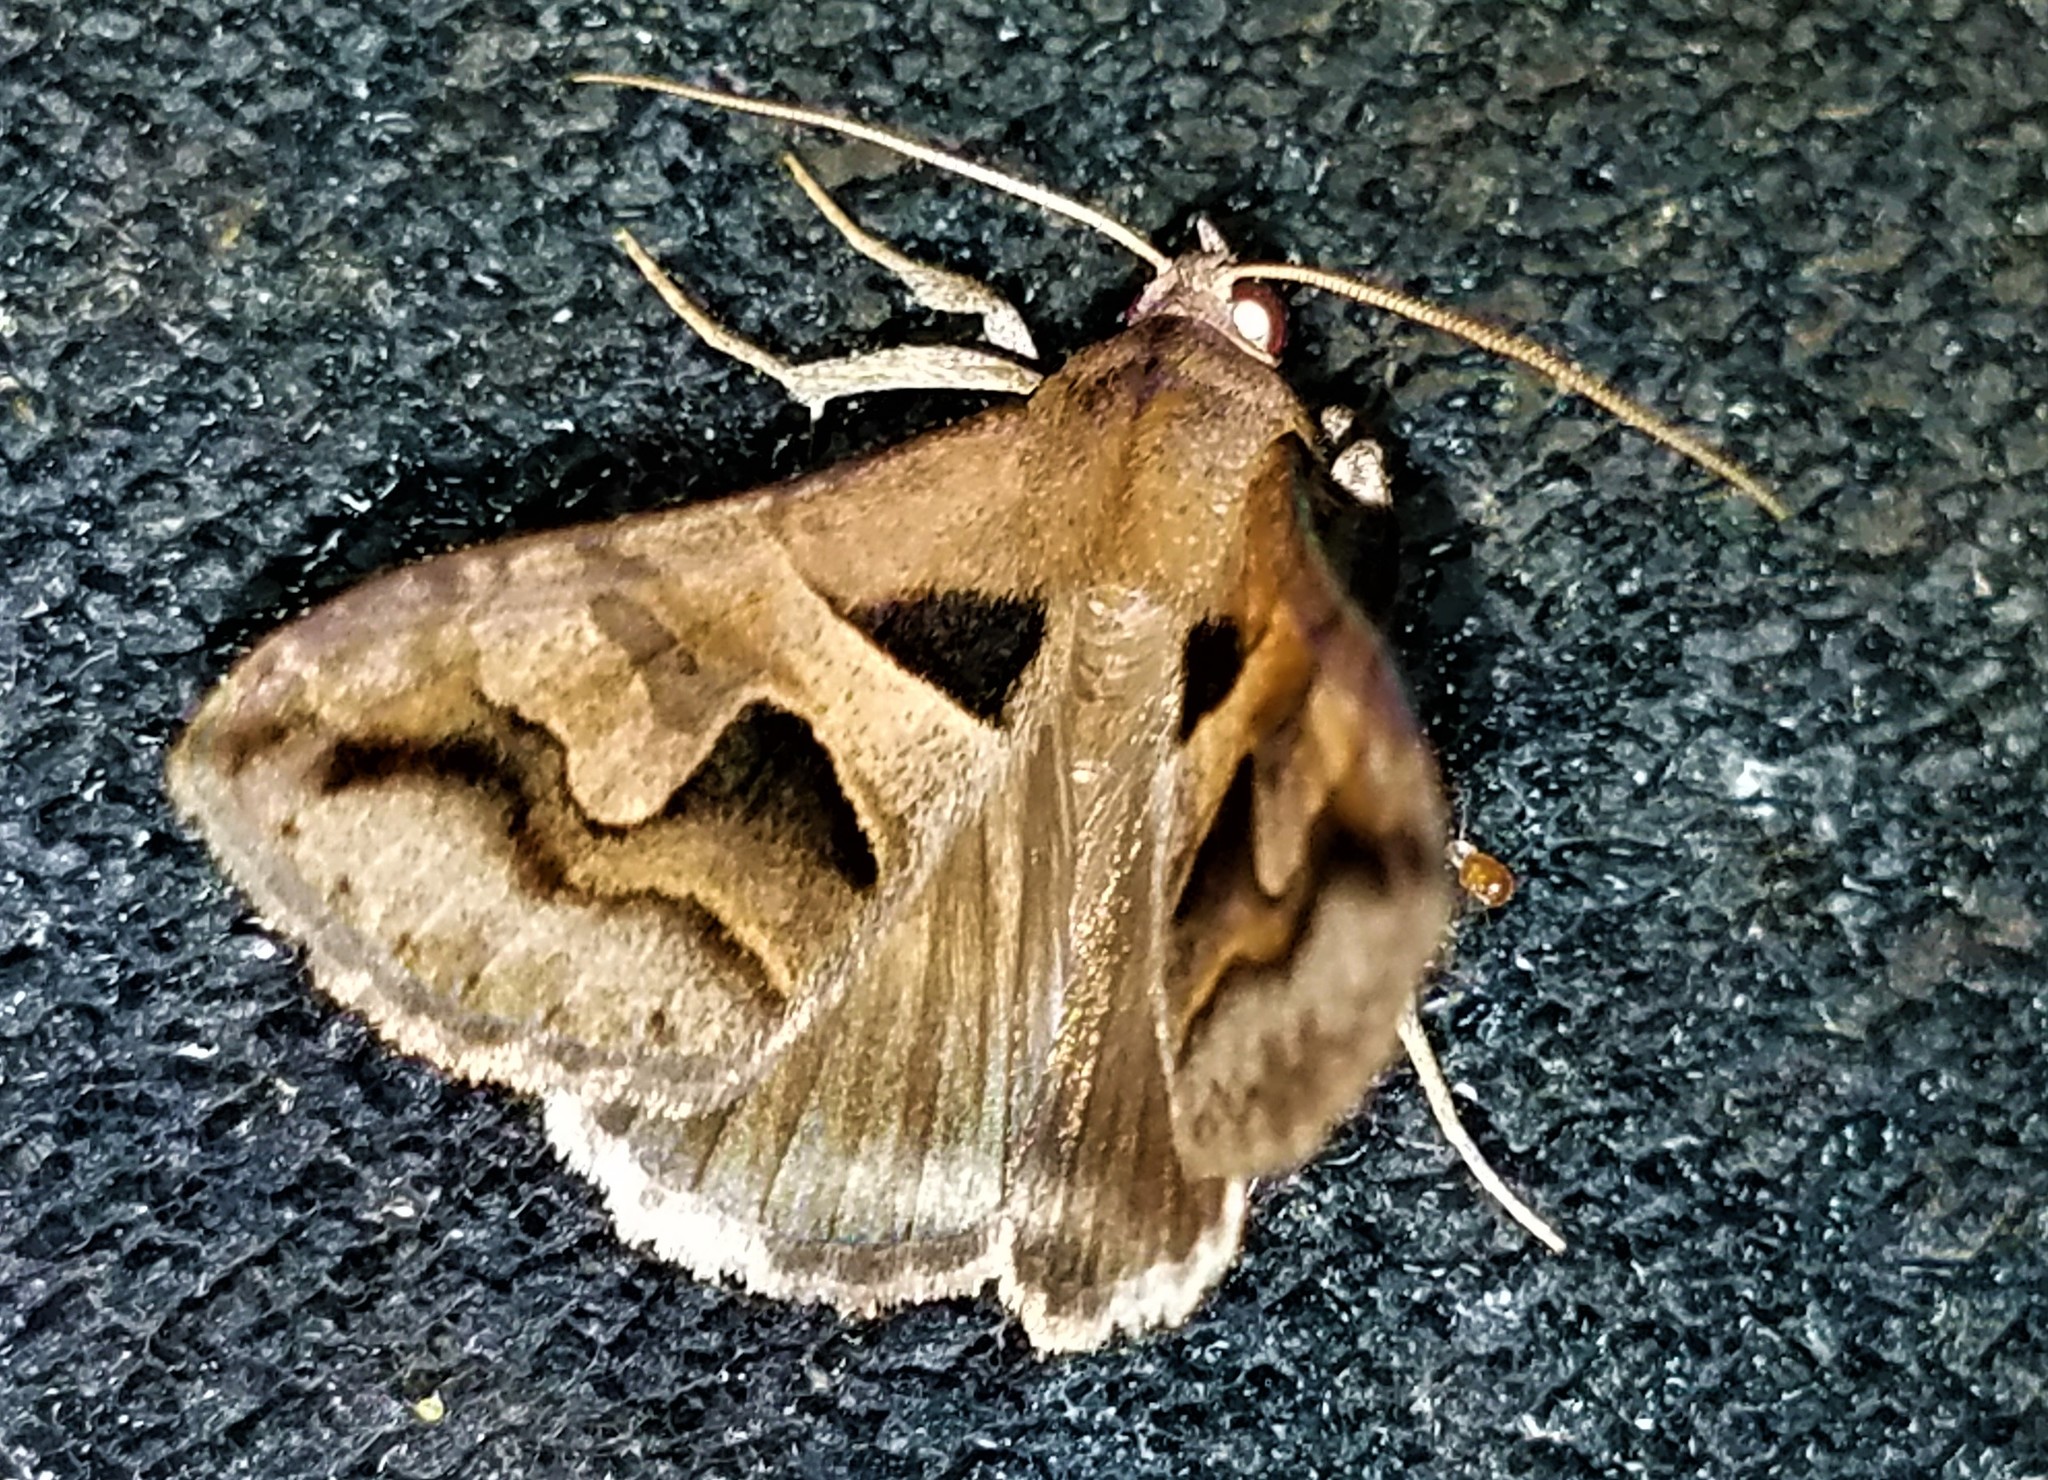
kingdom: Animalia
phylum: Arthropoda
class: Insecta
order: Lepidoptera
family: Erebidae
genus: Melipotis
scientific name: Melipotis cellaris
